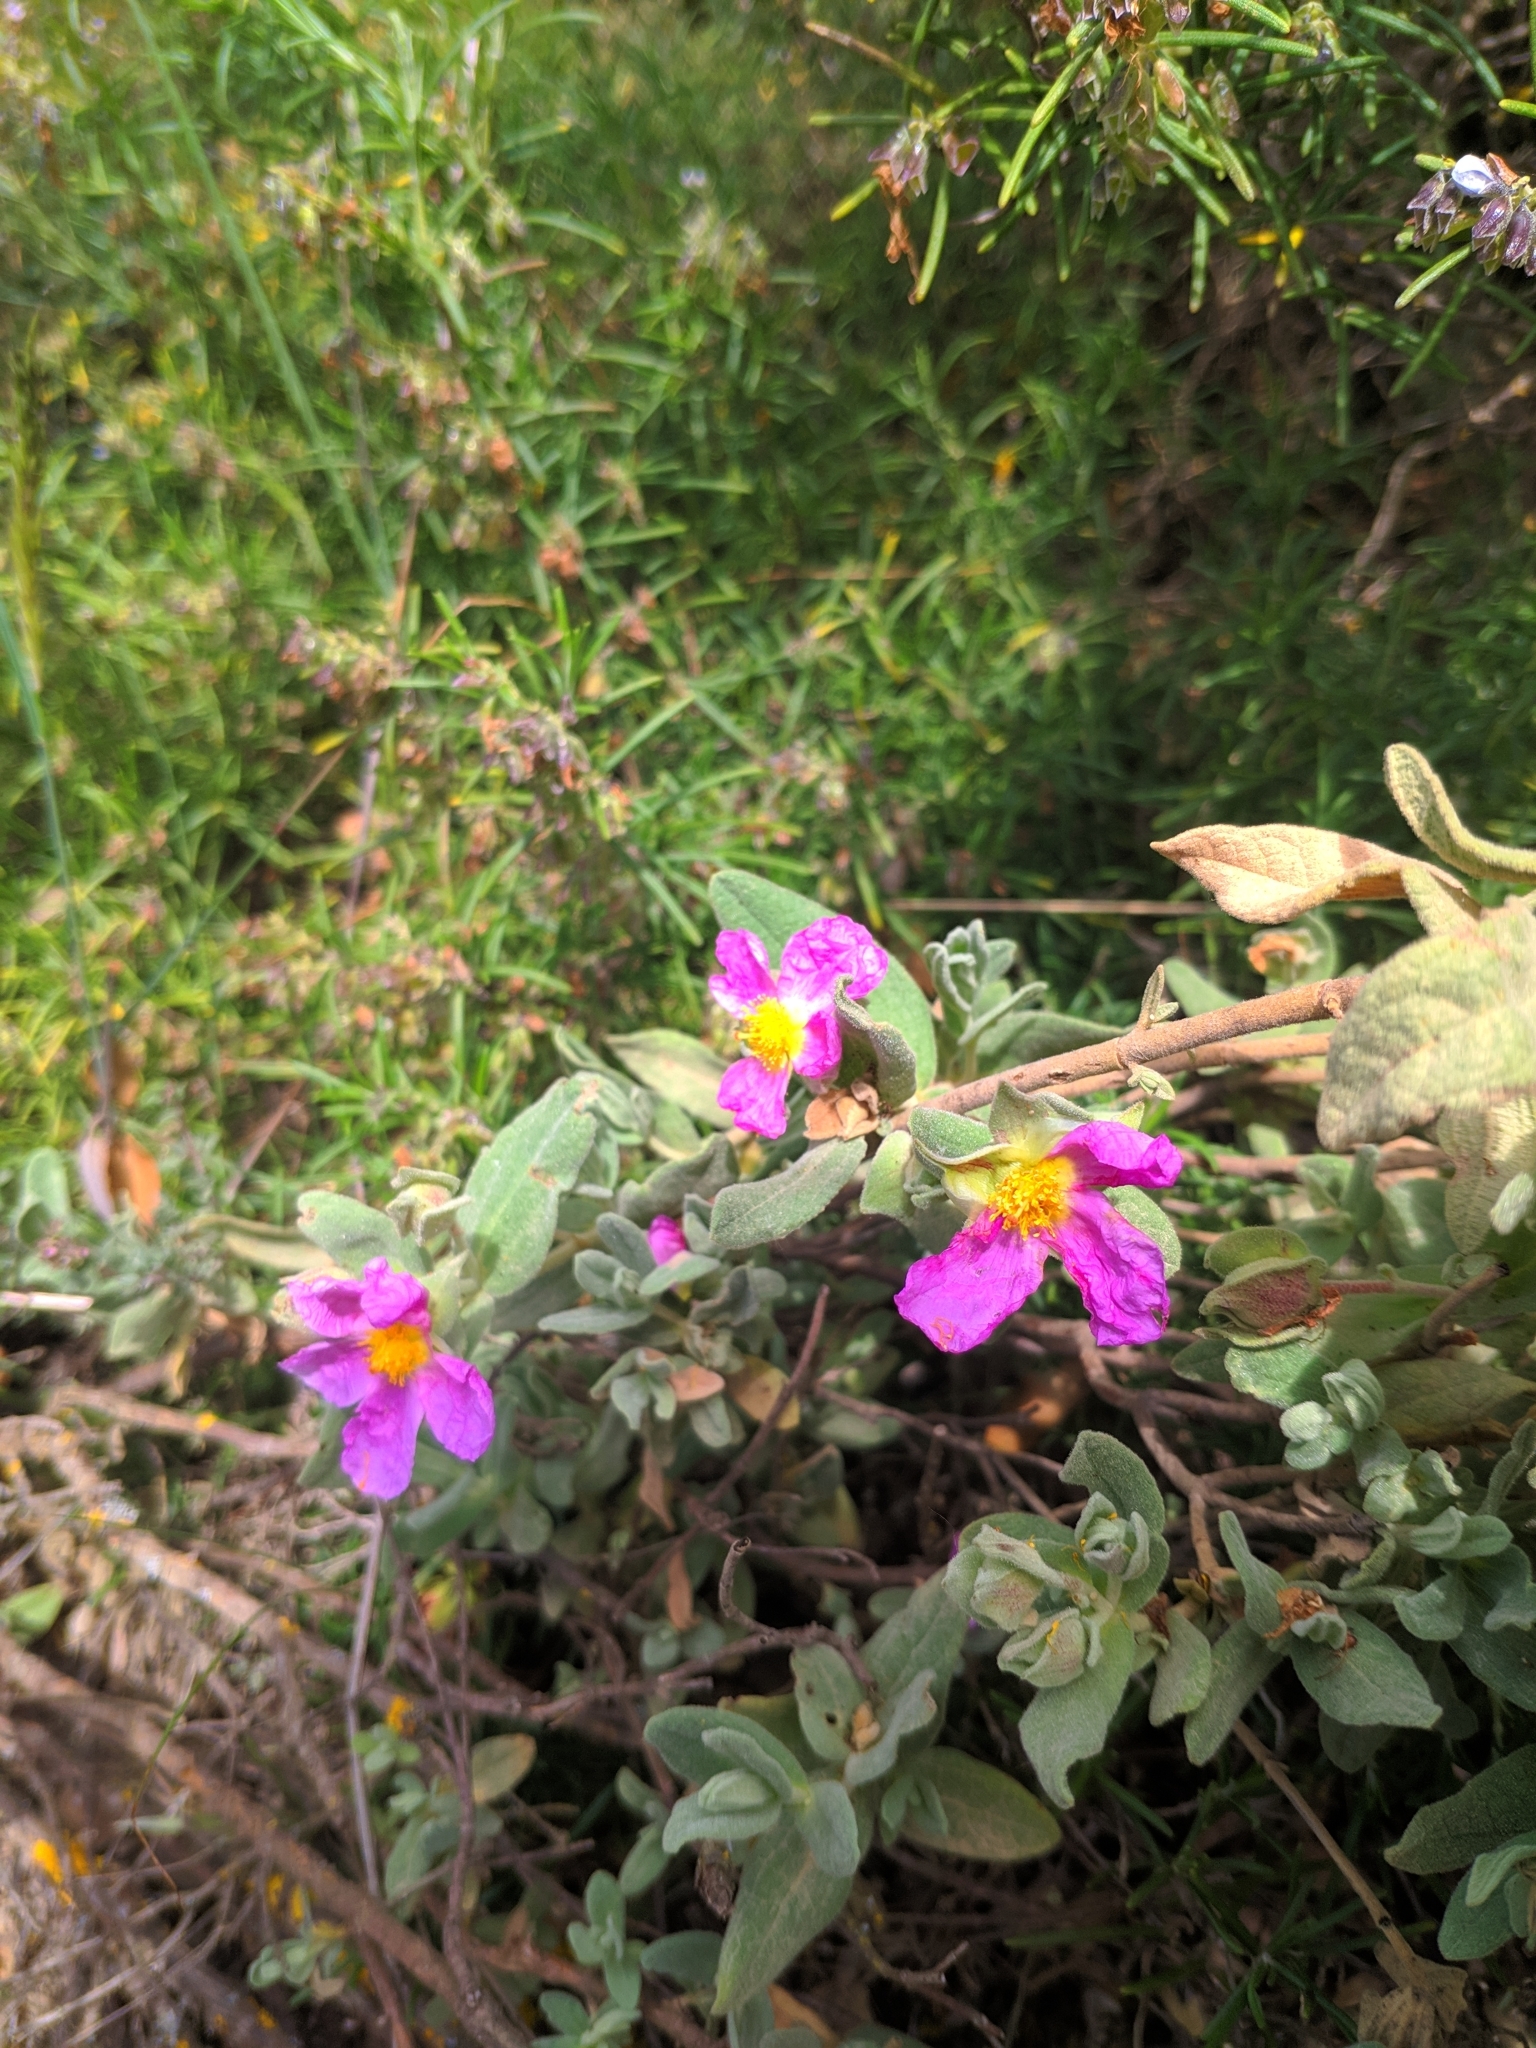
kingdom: Plantae
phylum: Tracheophyta
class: Magnoliopsida
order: Malvales
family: Cistaceae
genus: Cistus
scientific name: Cistus albidus
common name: White-leaf rock-rose
